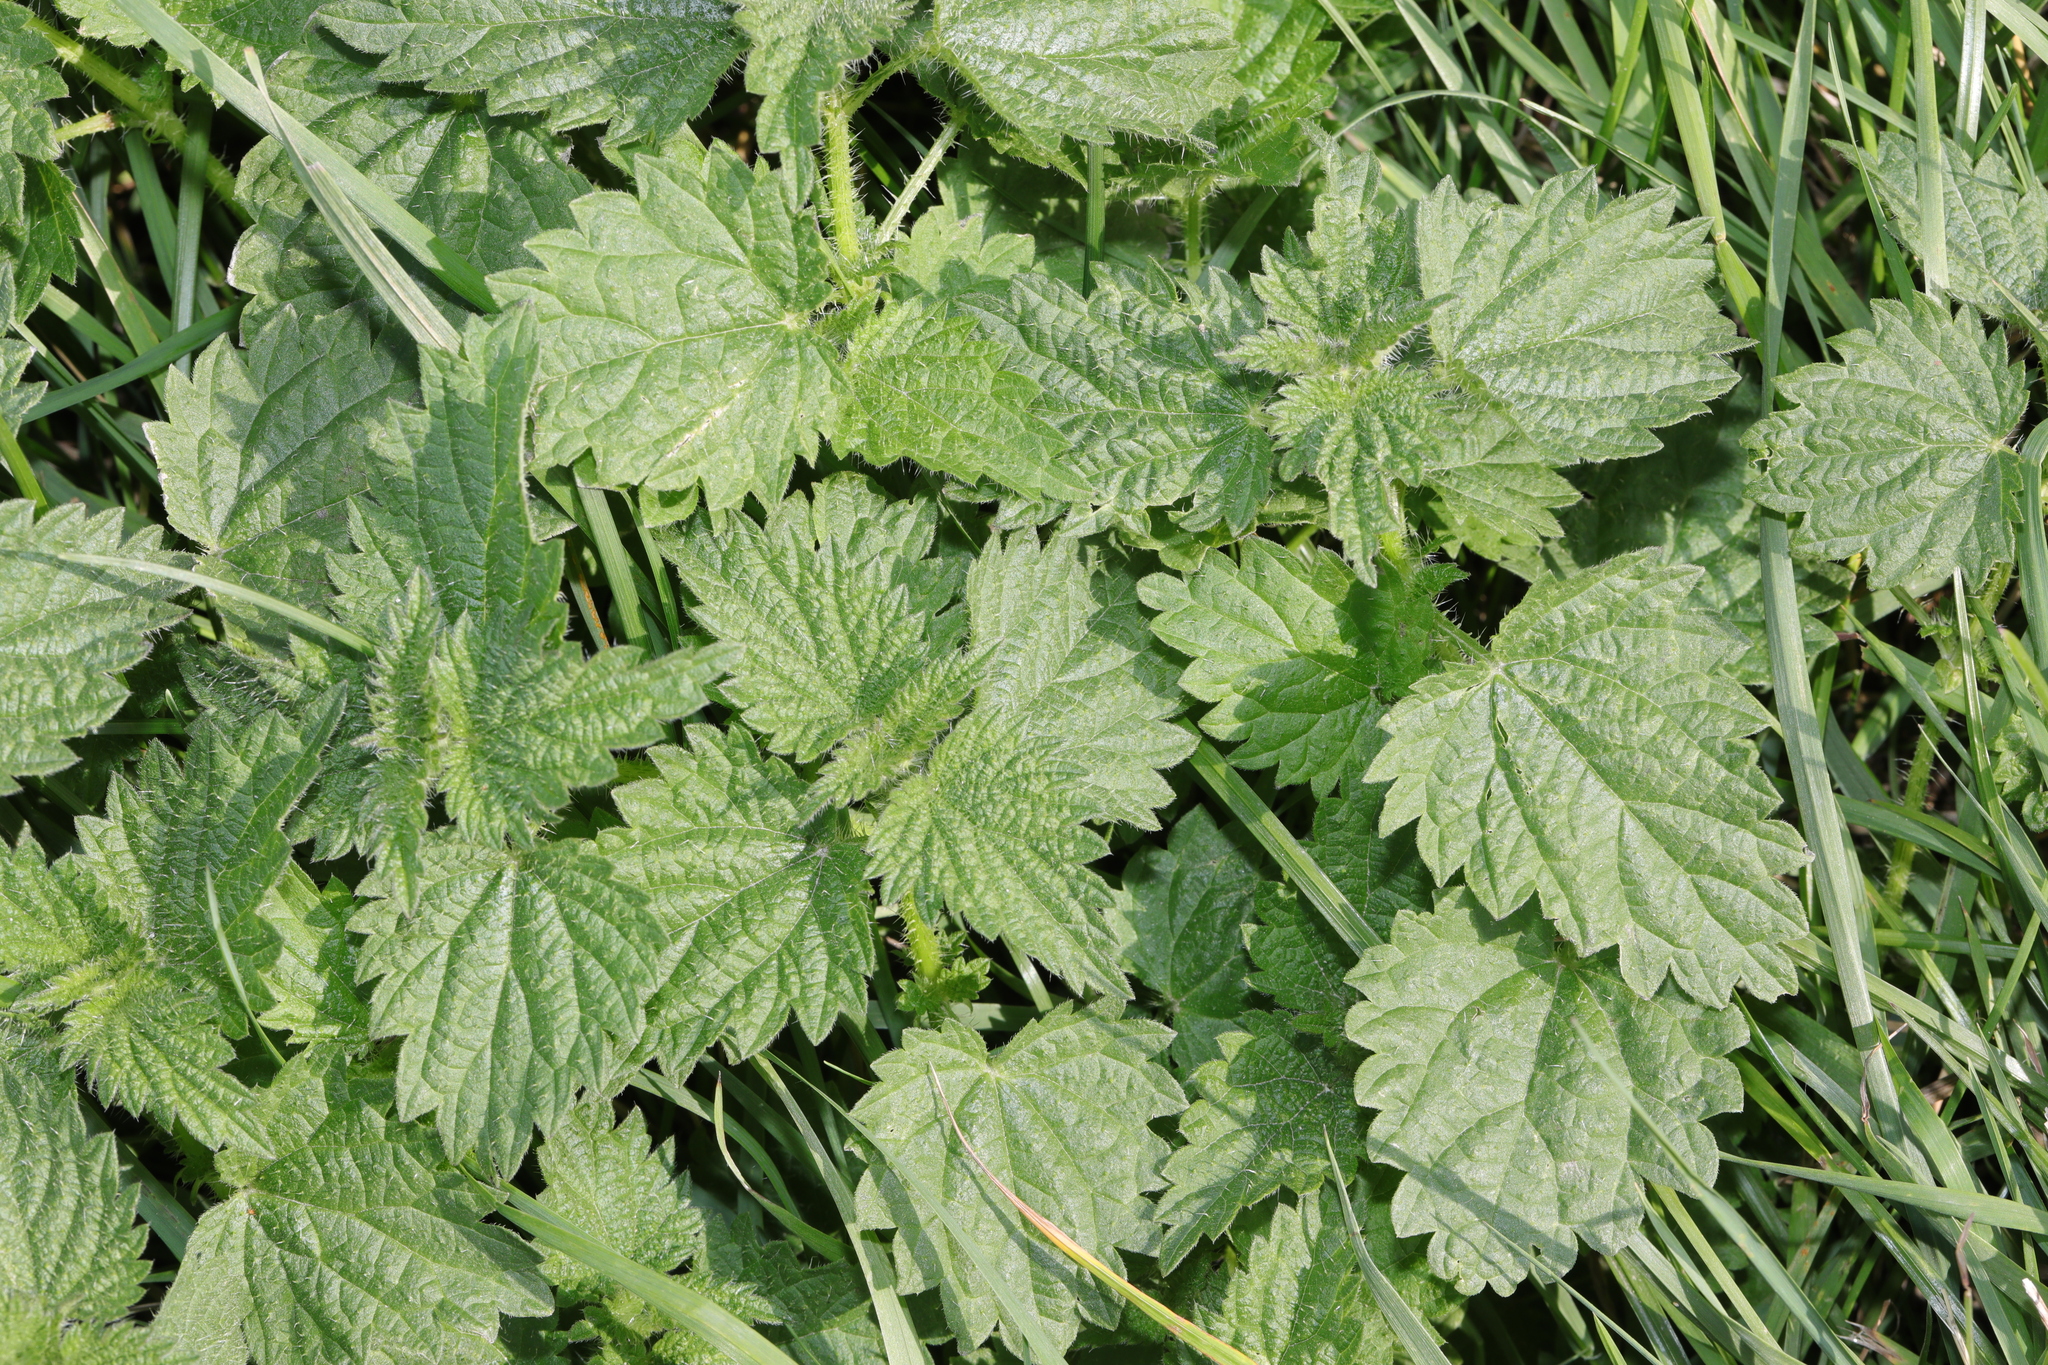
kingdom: Plantae
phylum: Tracheophyta
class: Magnoliopsida
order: Rosales
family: Urticaceae
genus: Urtica
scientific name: Urtica dioica
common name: Common nettle
